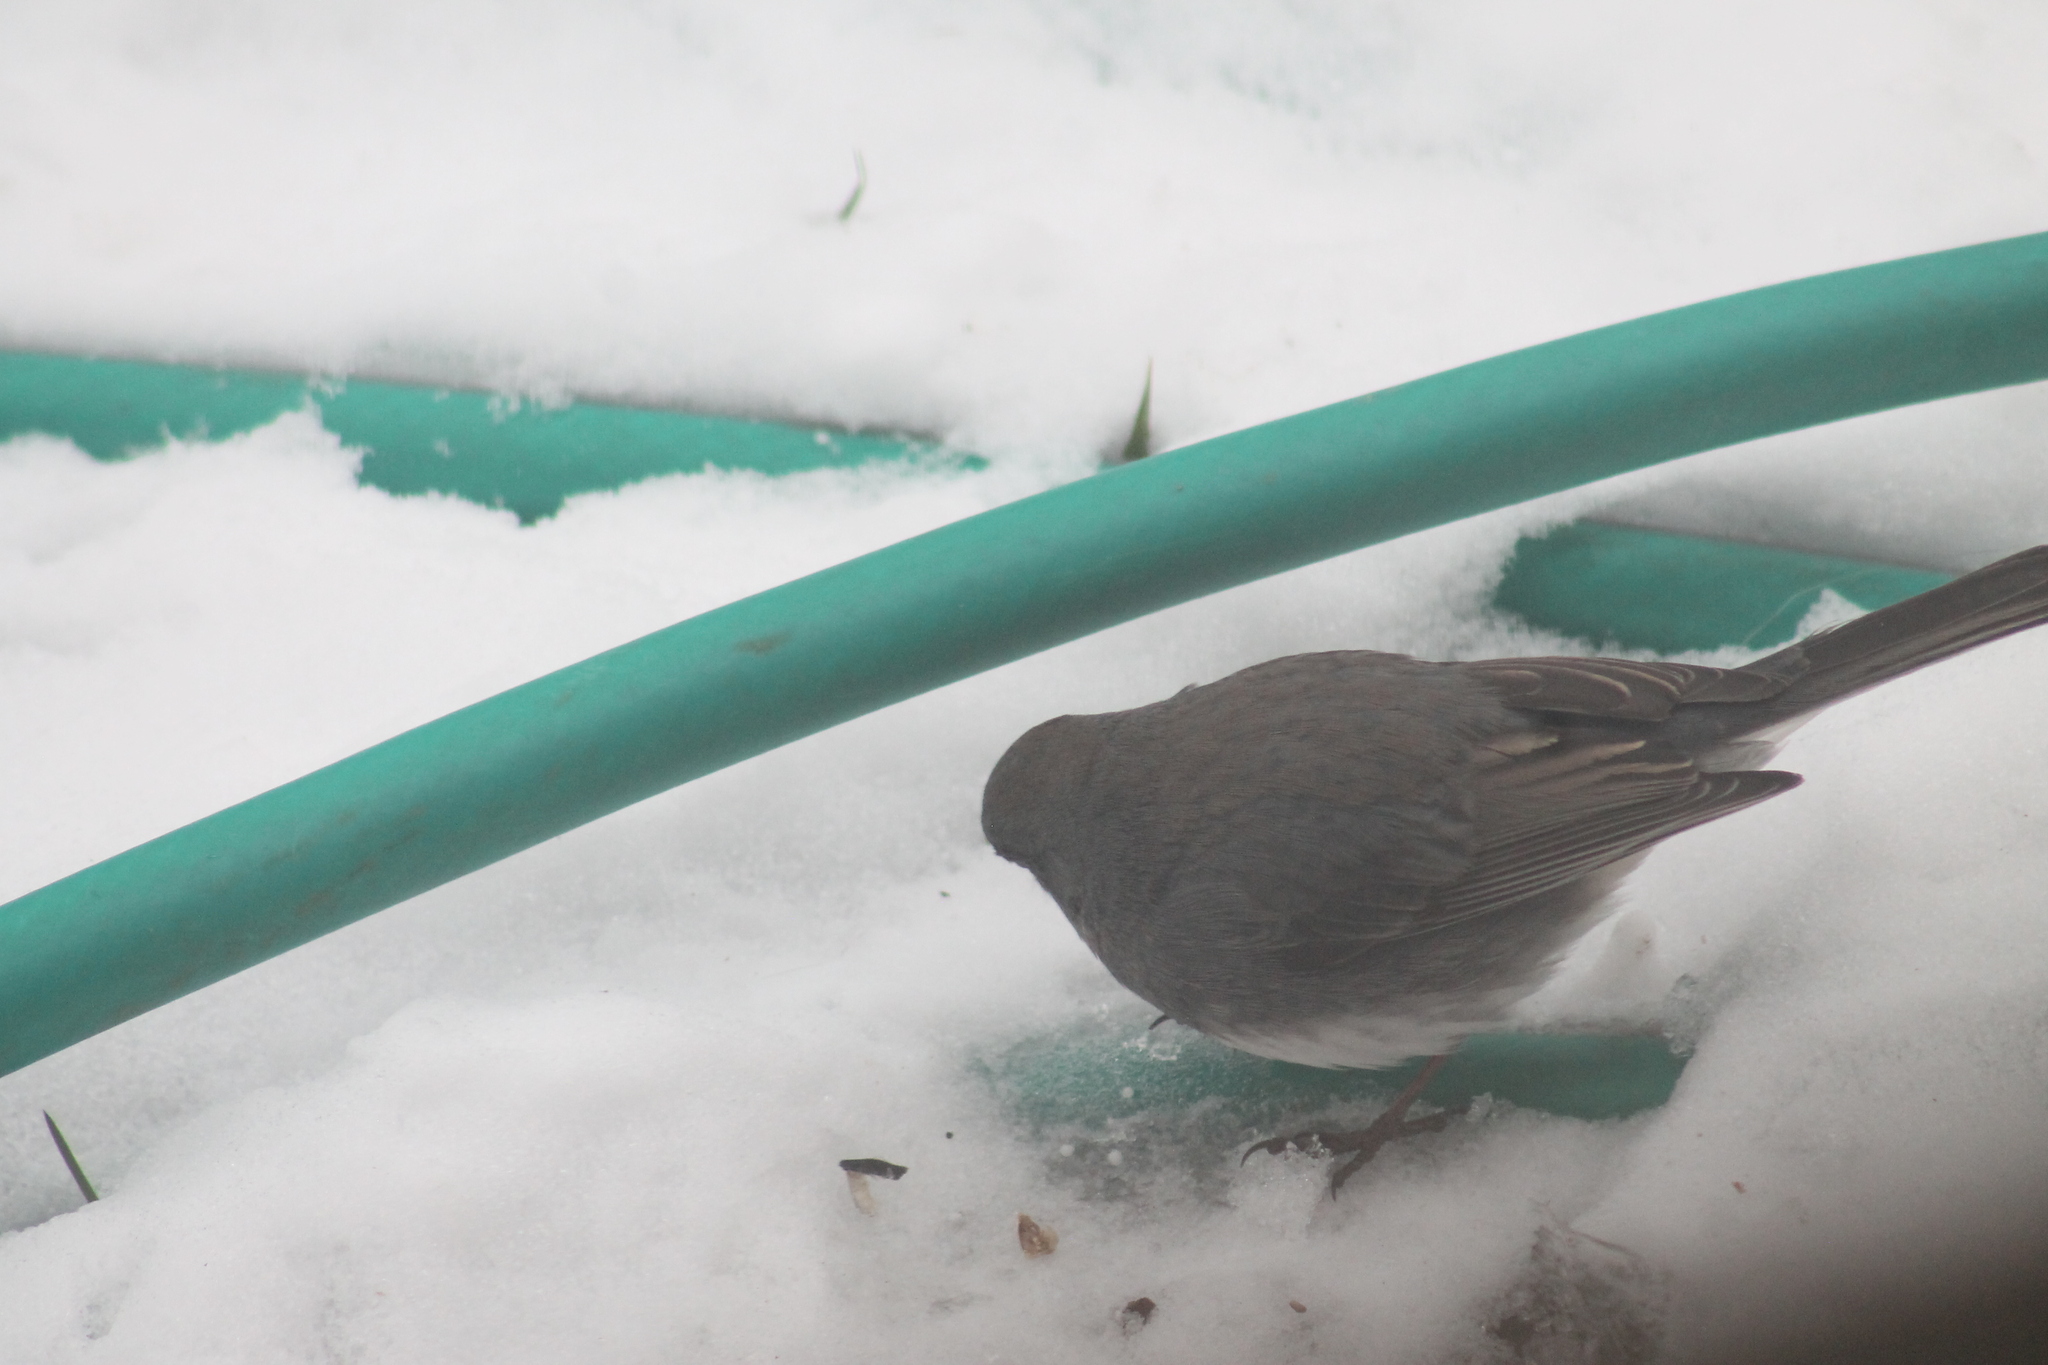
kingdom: Animalia
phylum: Chordata
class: Aves
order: Passeriformes
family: Passerellidae
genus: Junco
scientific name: Junco hyemalis
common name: Dark-eyed junco
